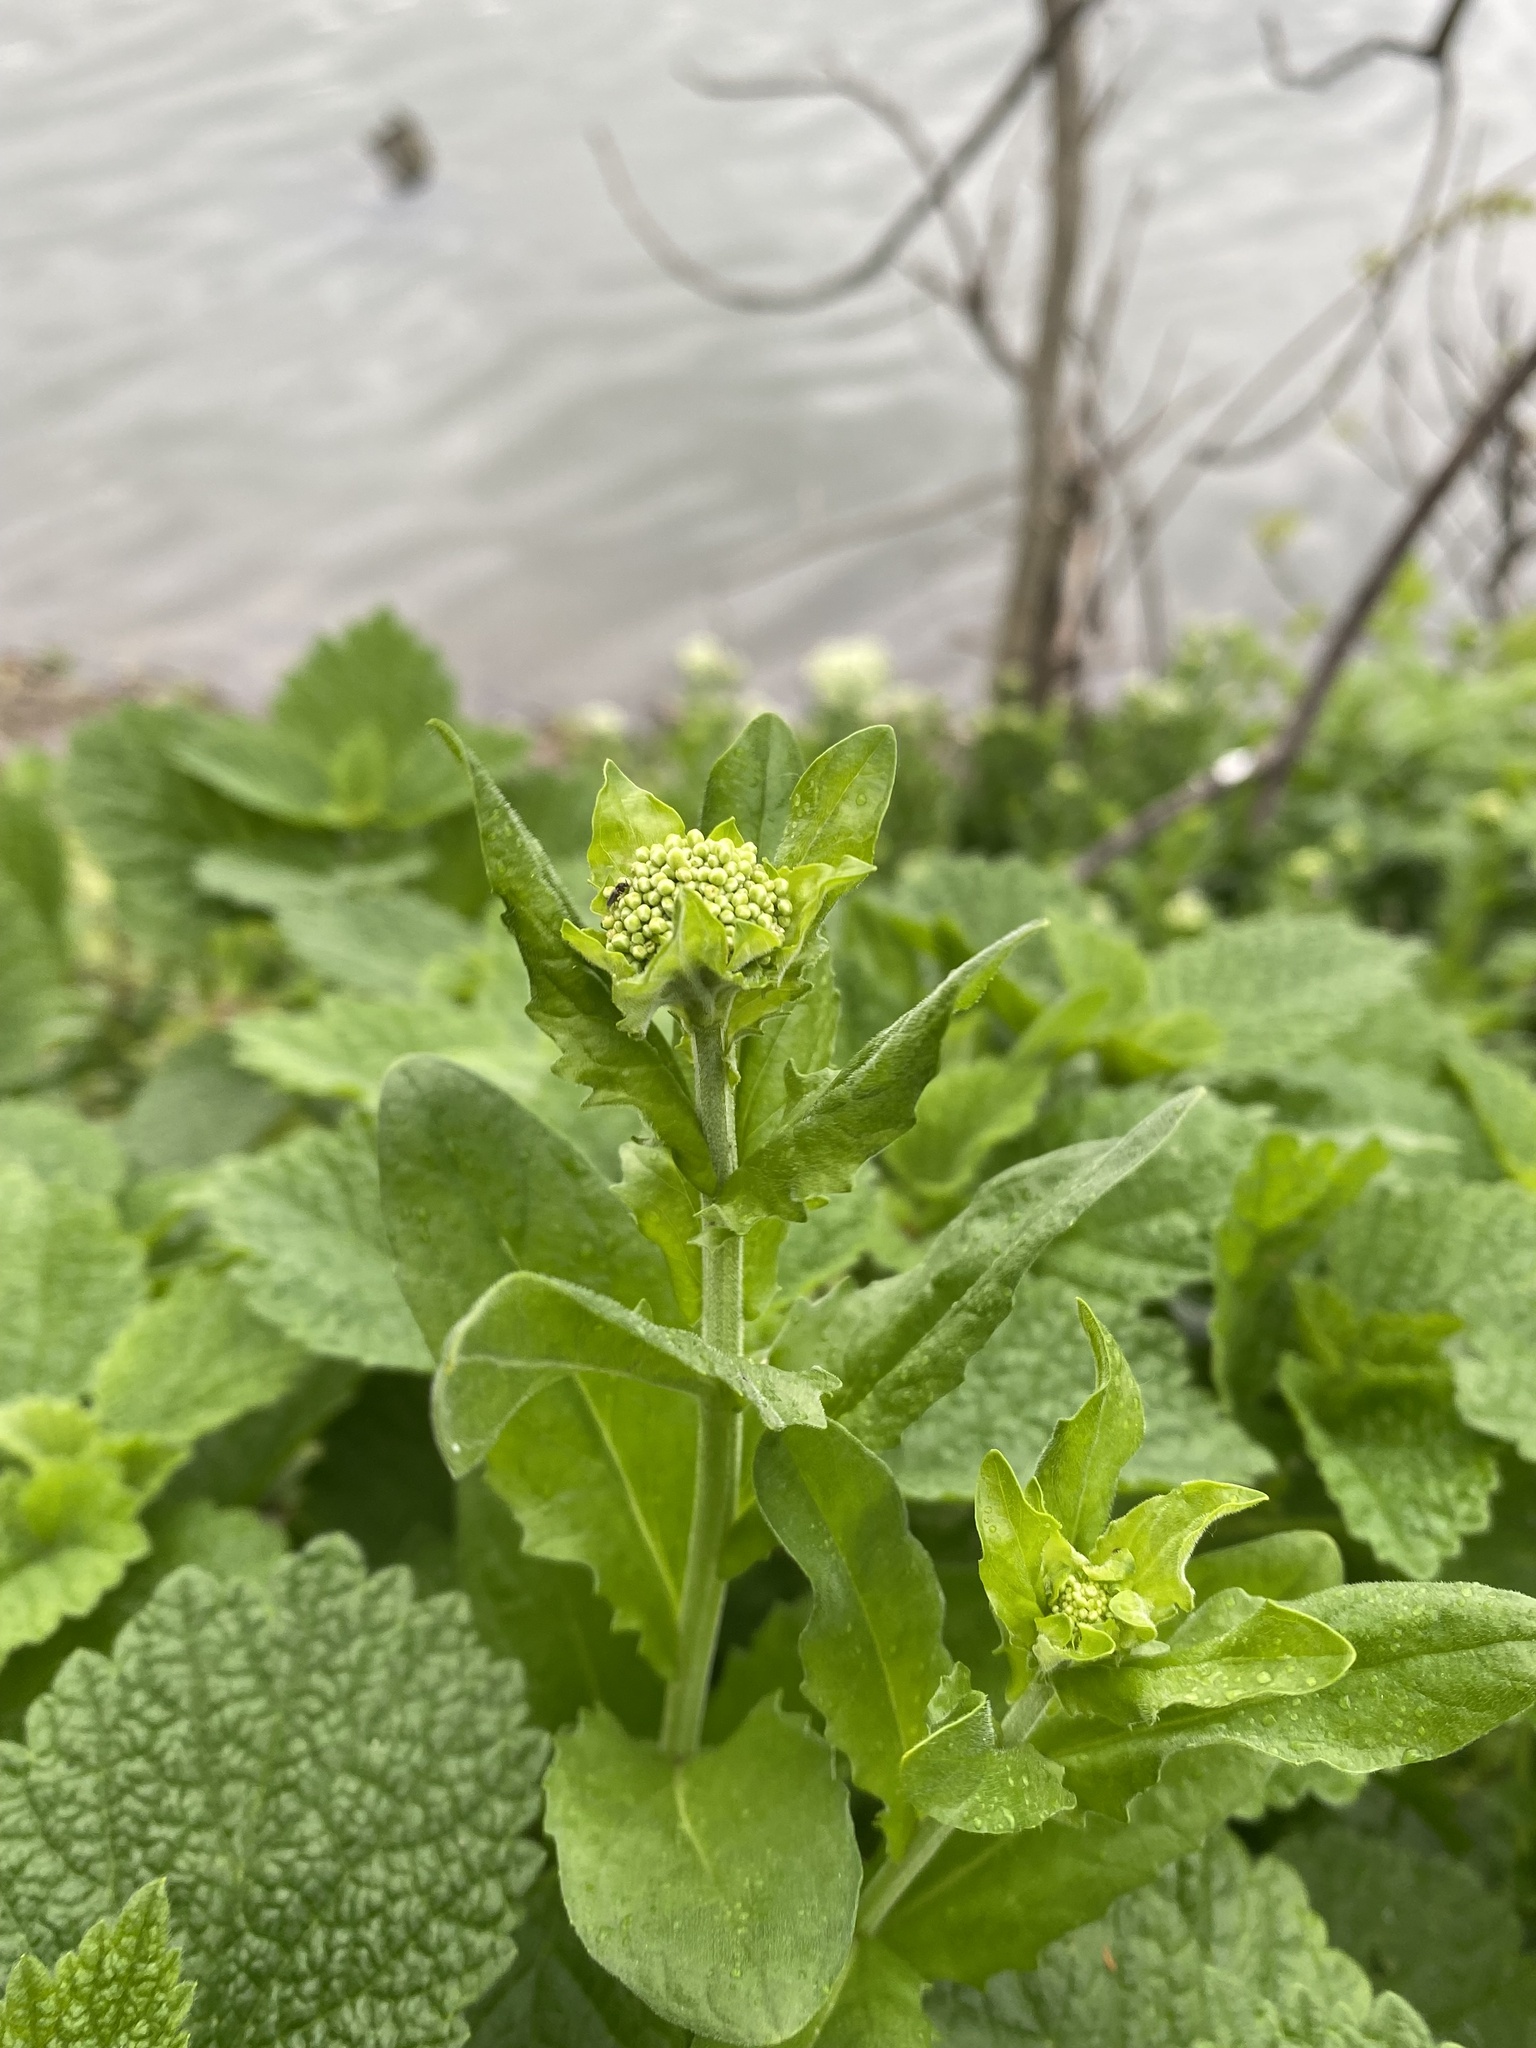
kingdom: Plantae
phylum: Tracheophyta
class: Magnoliopsida
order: Brassicales
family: Brassicaceae
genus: Lepidium
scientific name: Lepidium draba
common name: Hoary cress
